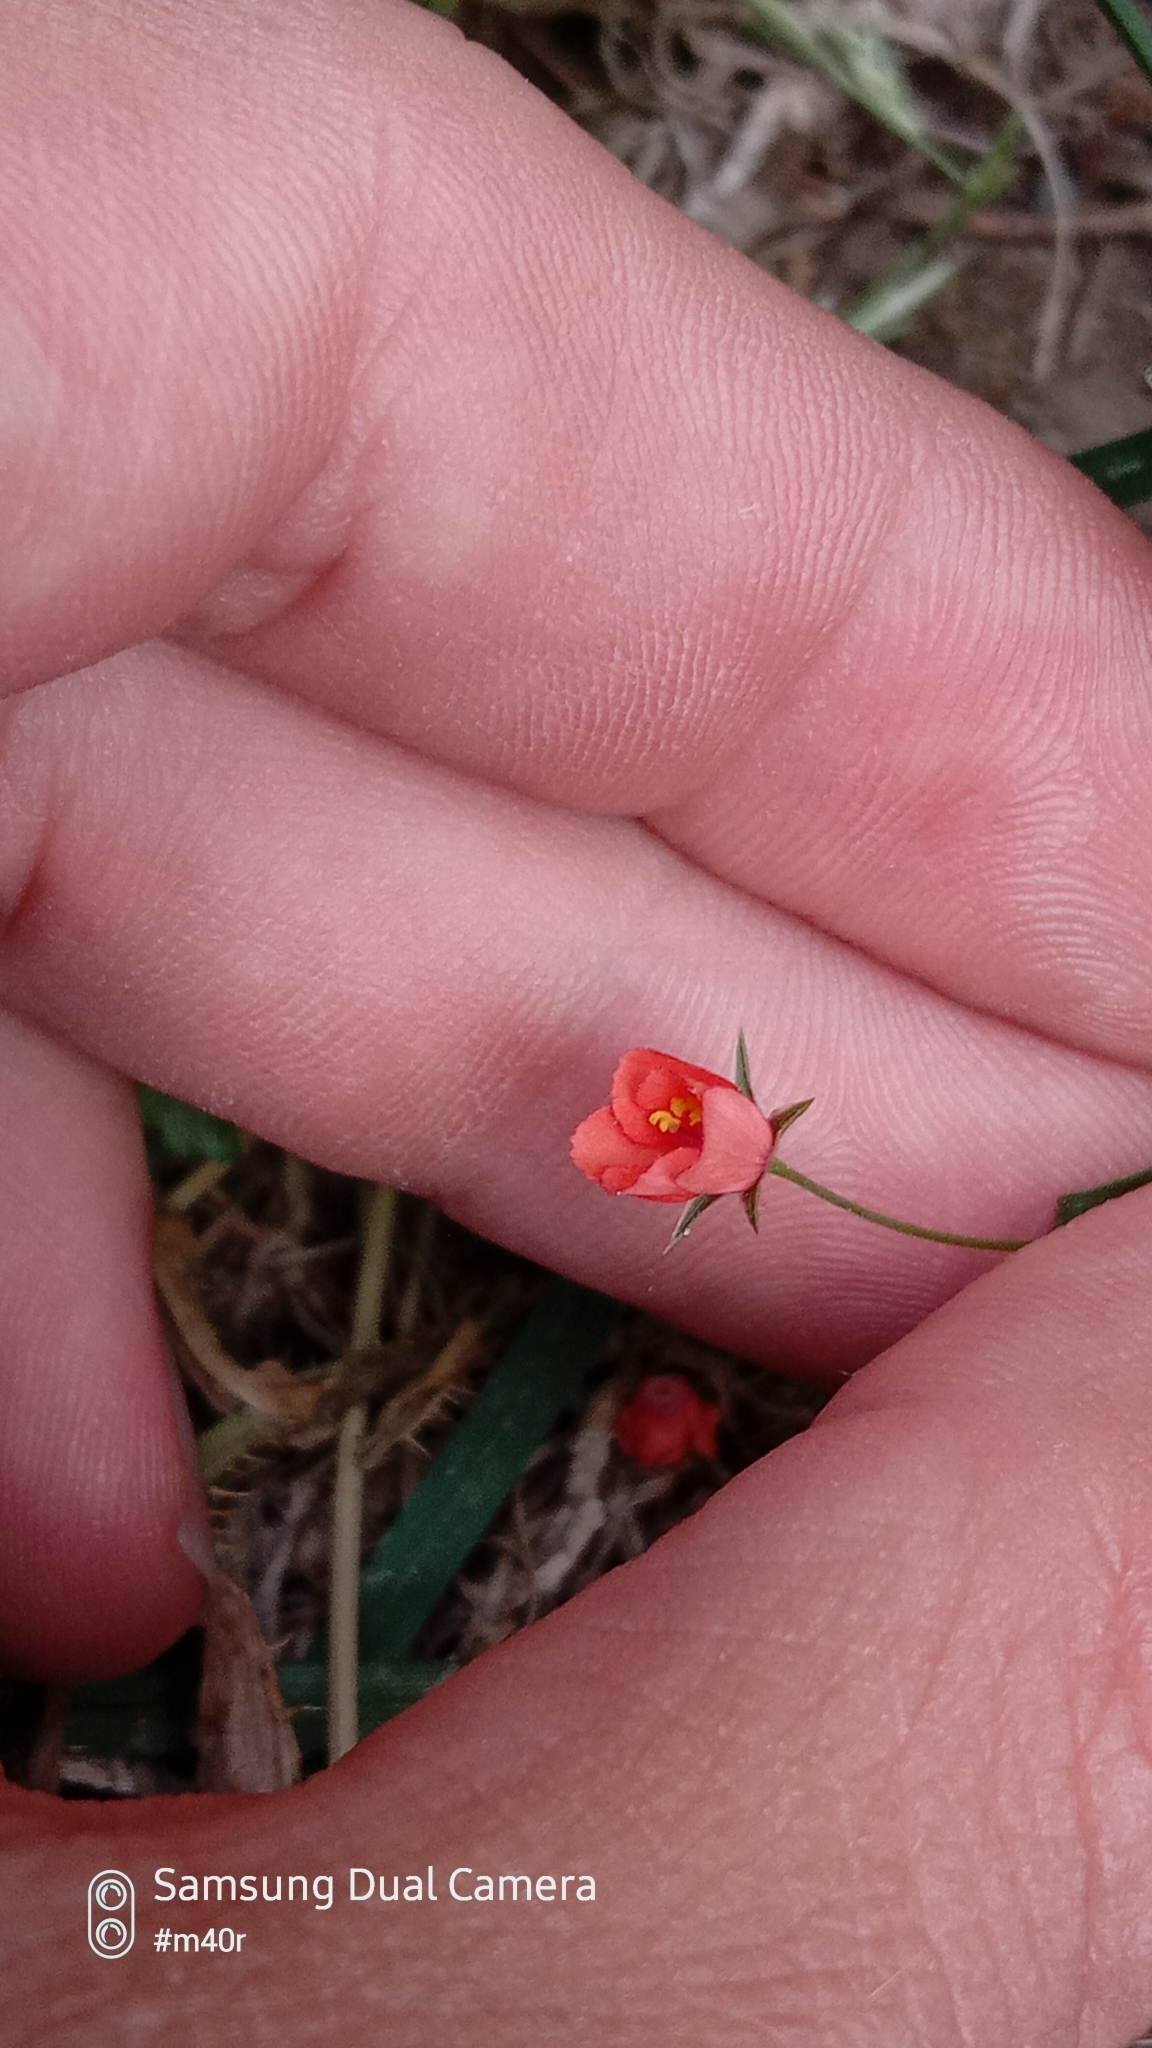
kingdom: Plantae
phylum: Tracheophyta
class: Magnoliopsida
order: Ericales
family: Primulaceae
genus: Lysimachia
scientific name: Lysimachia arvensis
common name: Scarlet pimpernel
